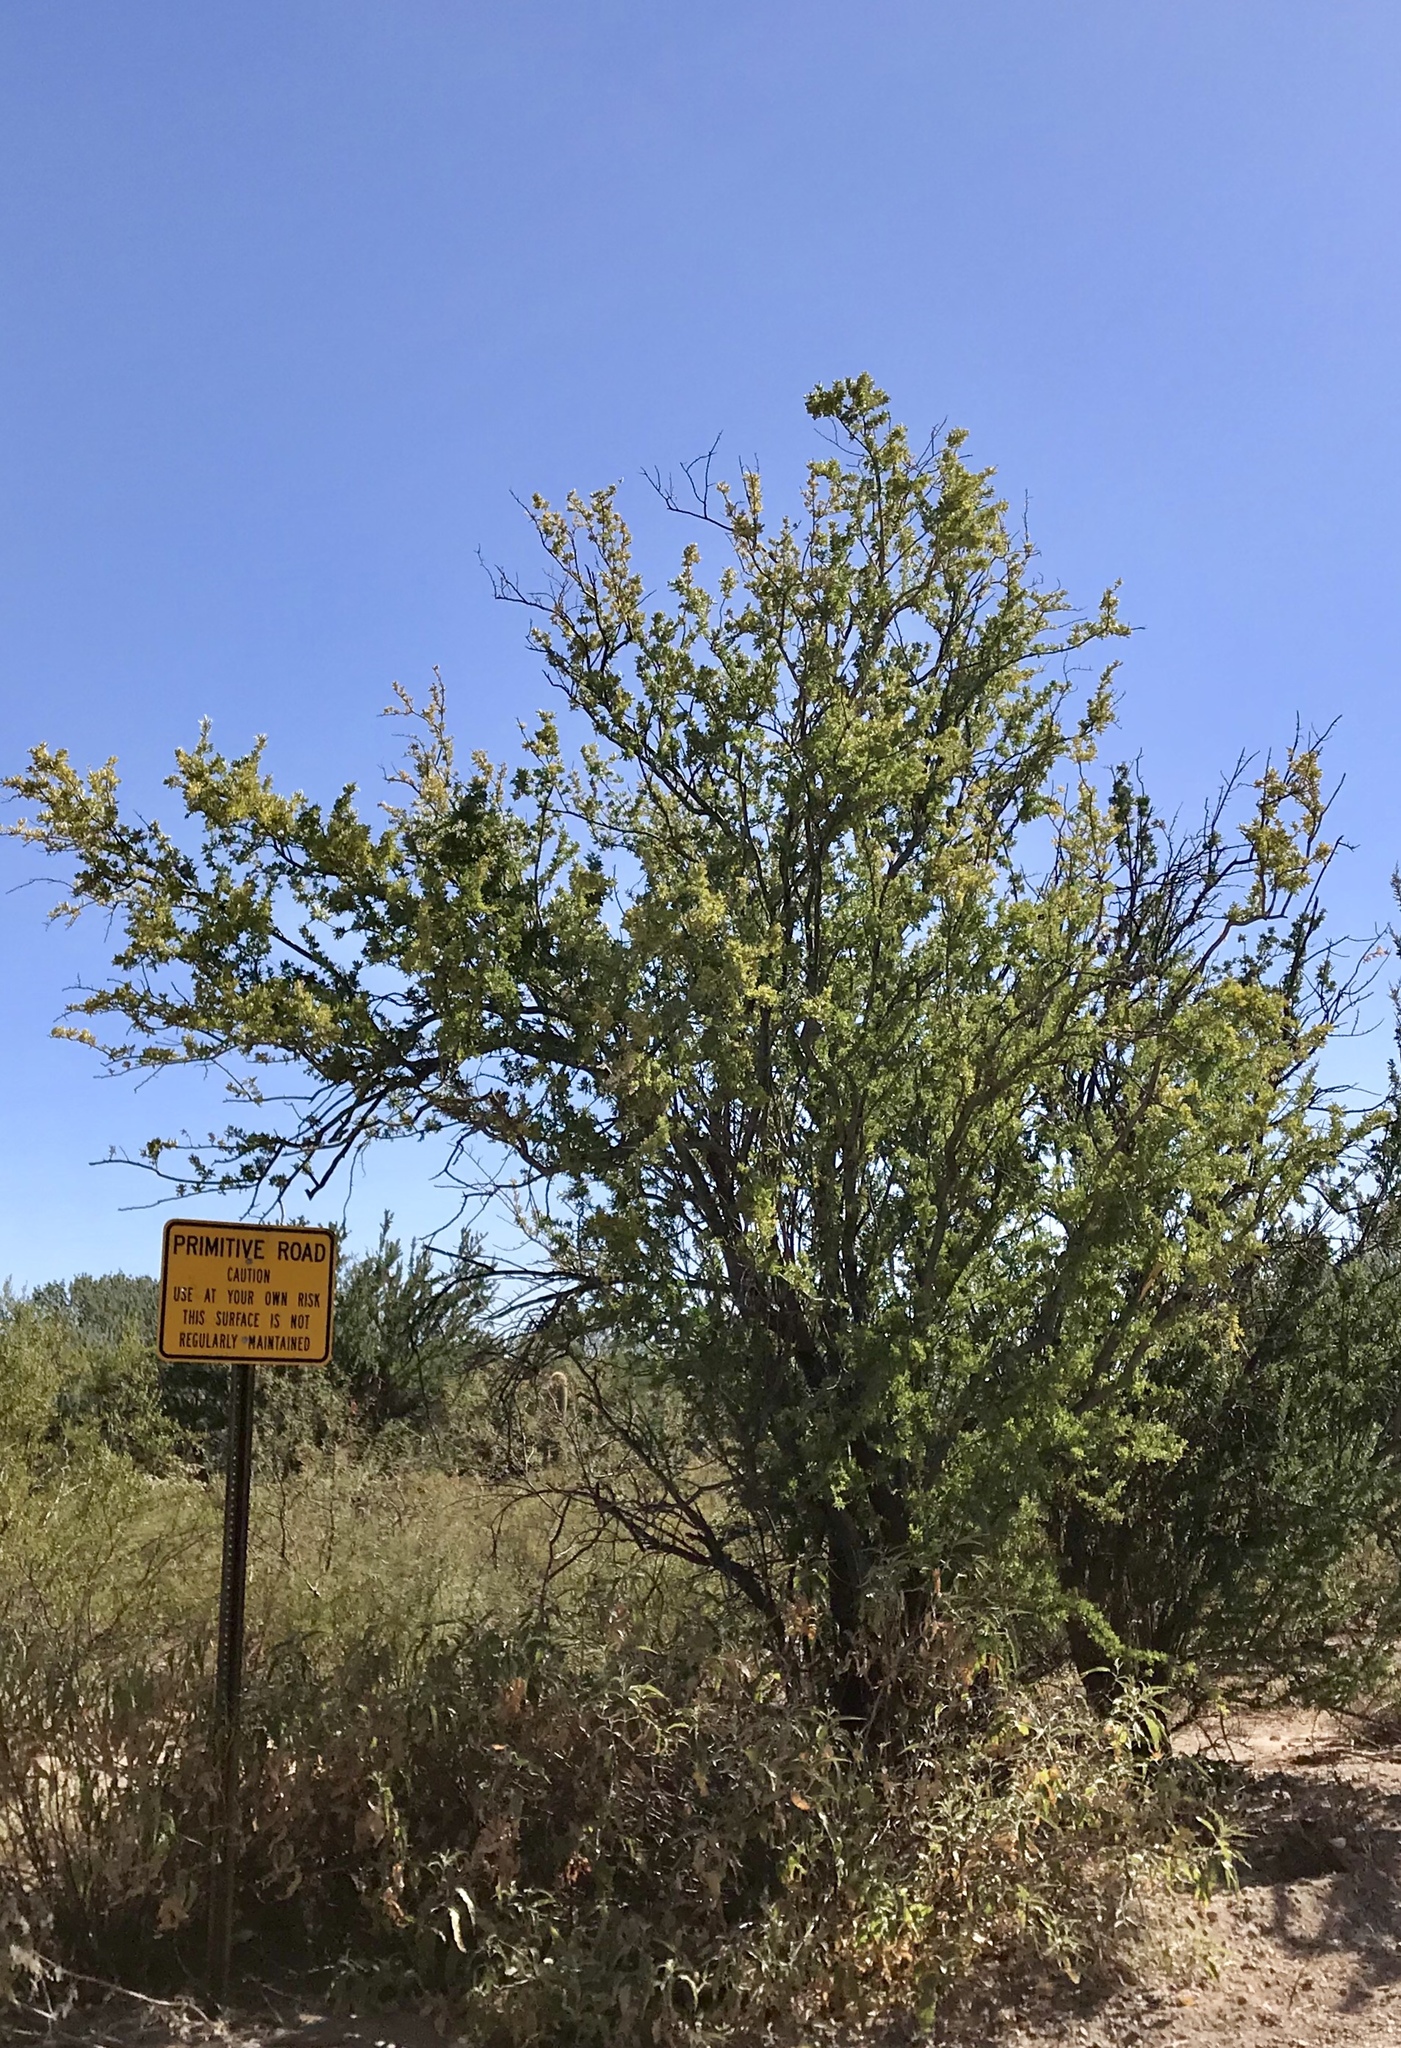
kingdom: Plantae
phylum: Tracheophyta
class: Magnoliopsida
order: Fabales
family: Fabaceae
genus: Olneya
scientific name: Olneya tesota
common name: Desert ironwood
